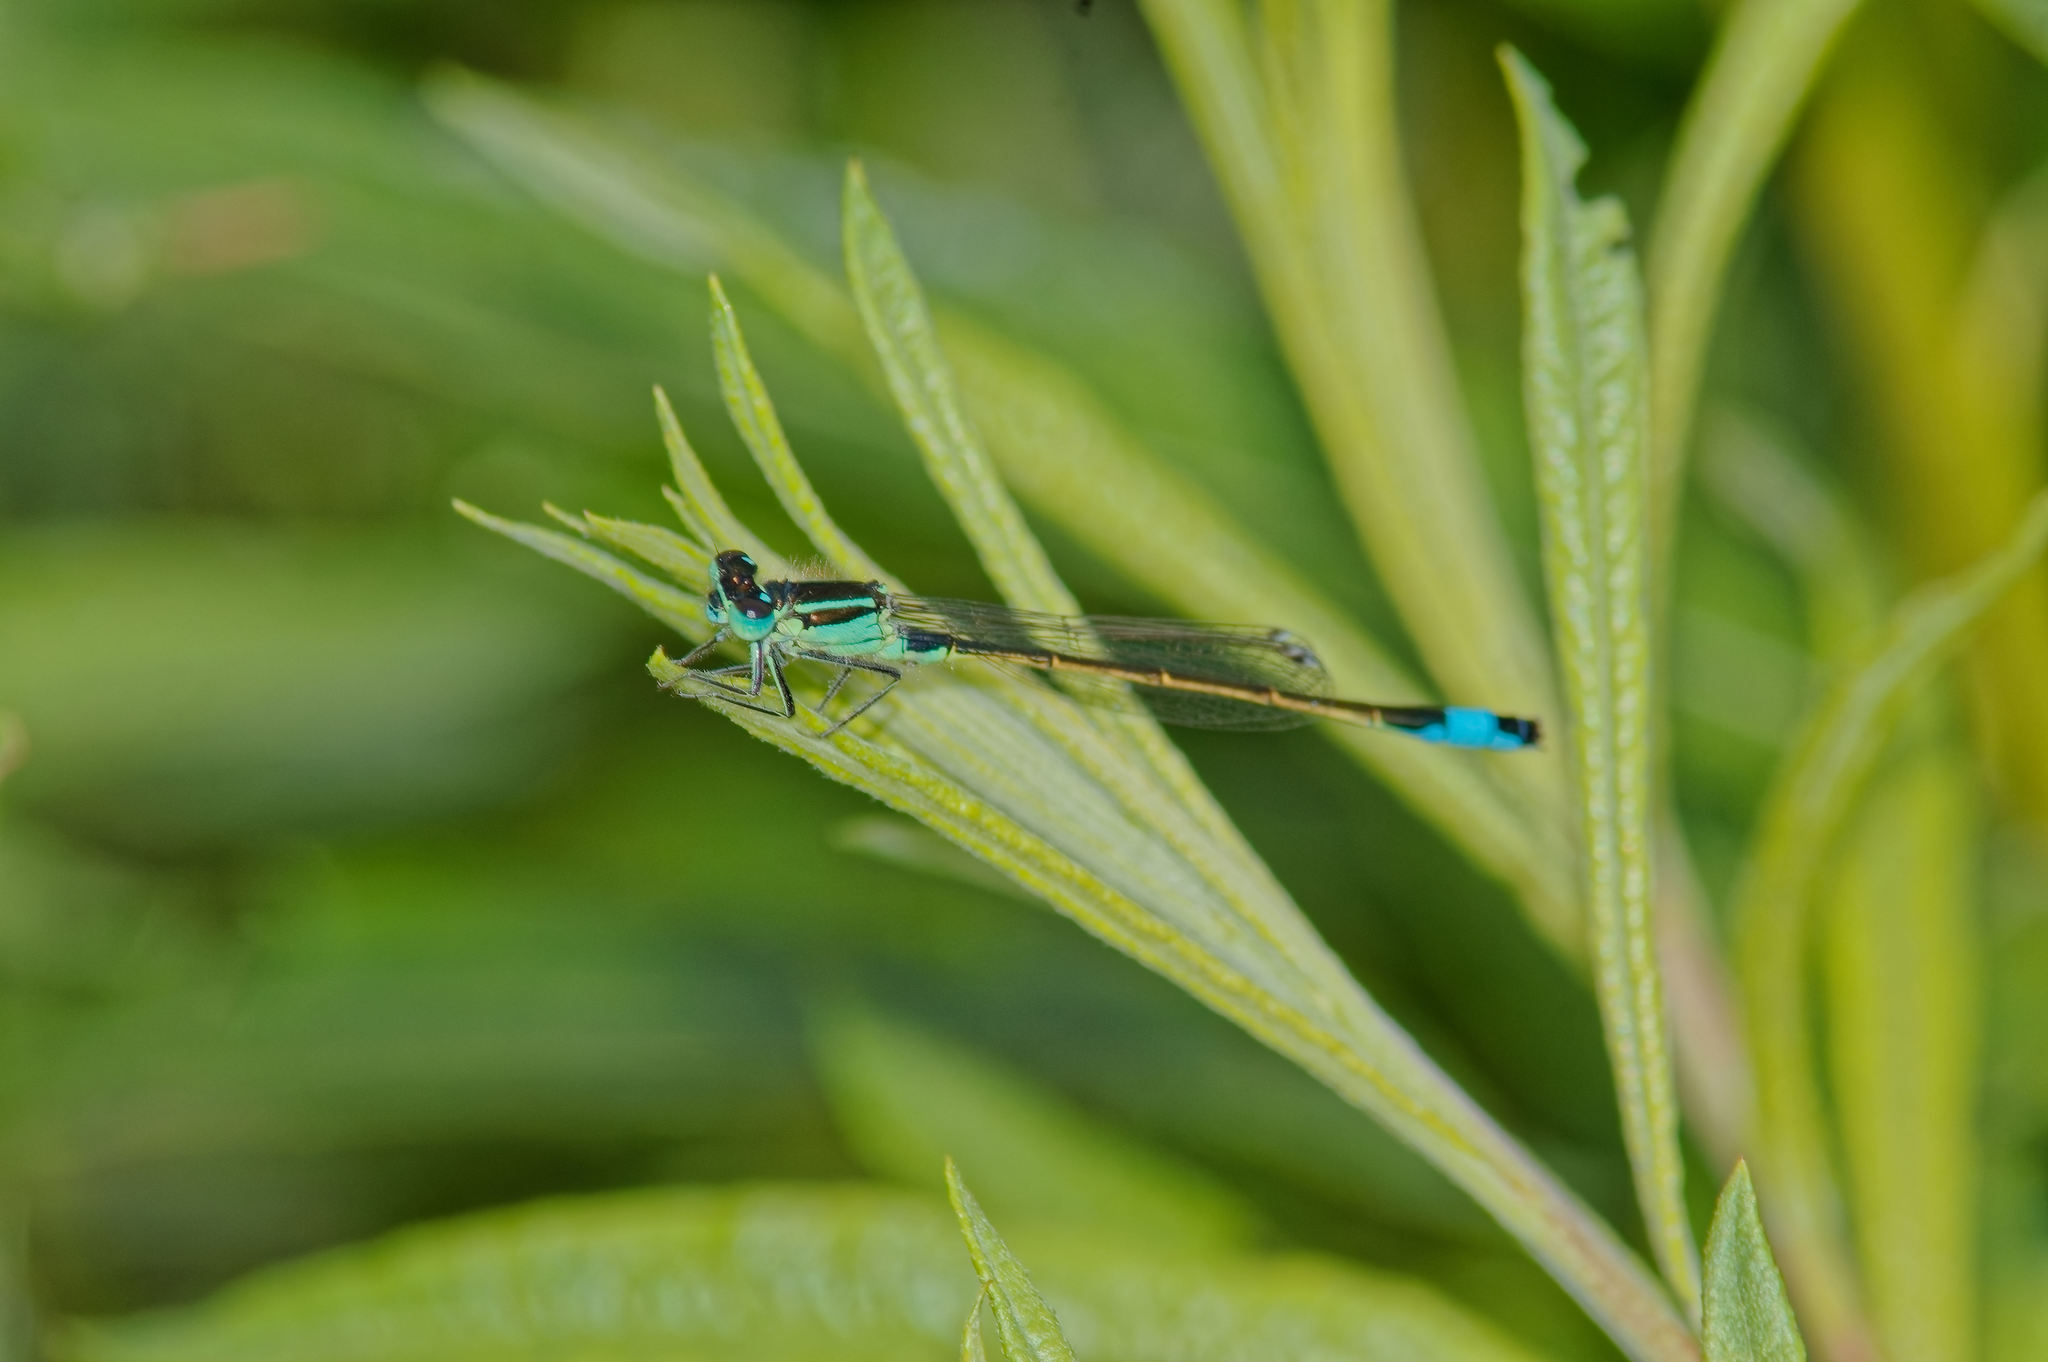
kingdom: Animalia
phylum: Arthropoda
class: Insecta
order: Odonata
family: Coenagrionidae
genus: Ischnura
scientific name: Ischnura elegans
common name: Blue-tailed damselfly
